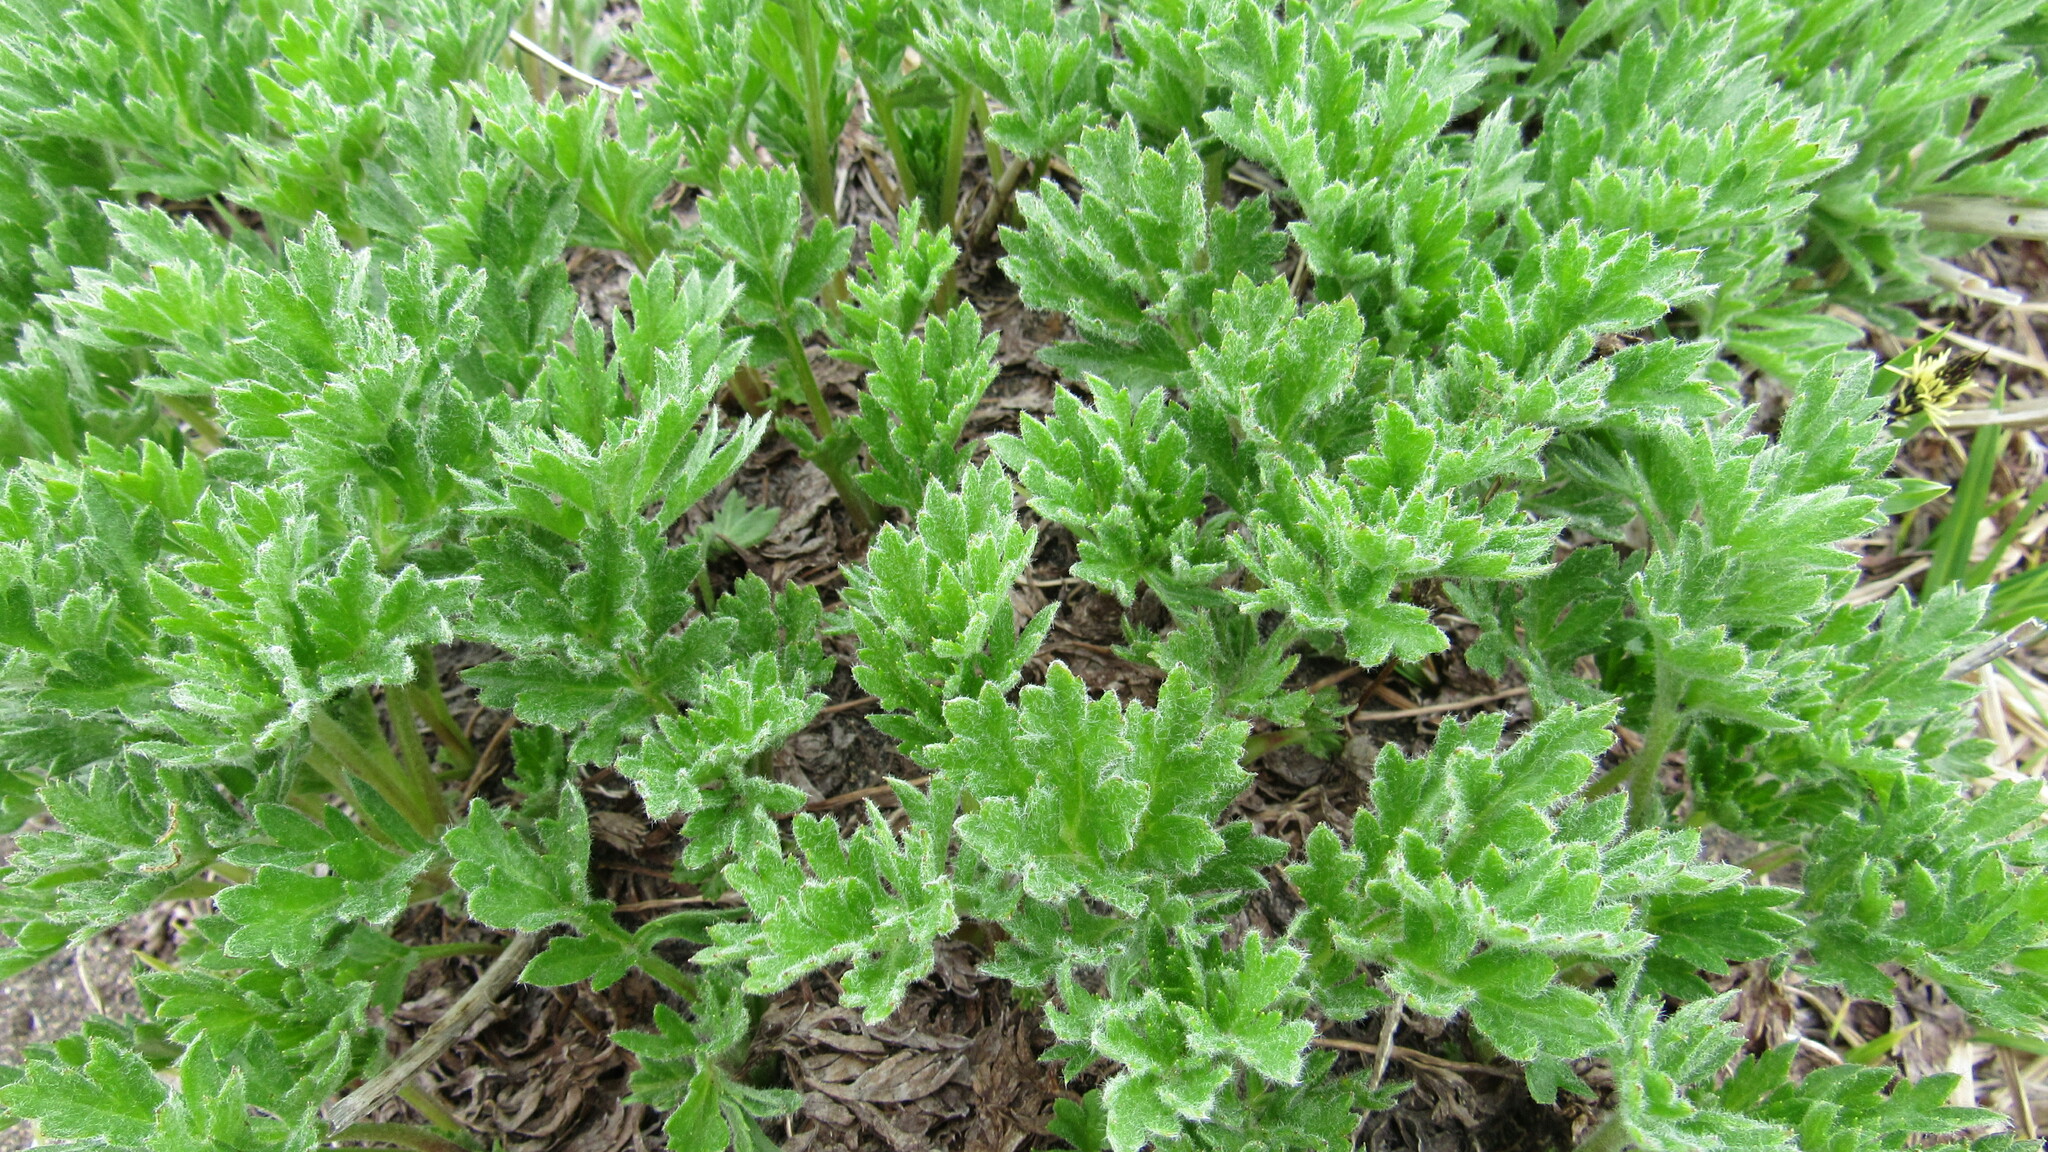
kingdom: Plantae
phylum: Tracheophyta
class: Magnoliopsida
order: Ranunculales
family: Ranunculaceae
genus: Anemonastrum
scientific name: Anemonastrum narcissiflorum
